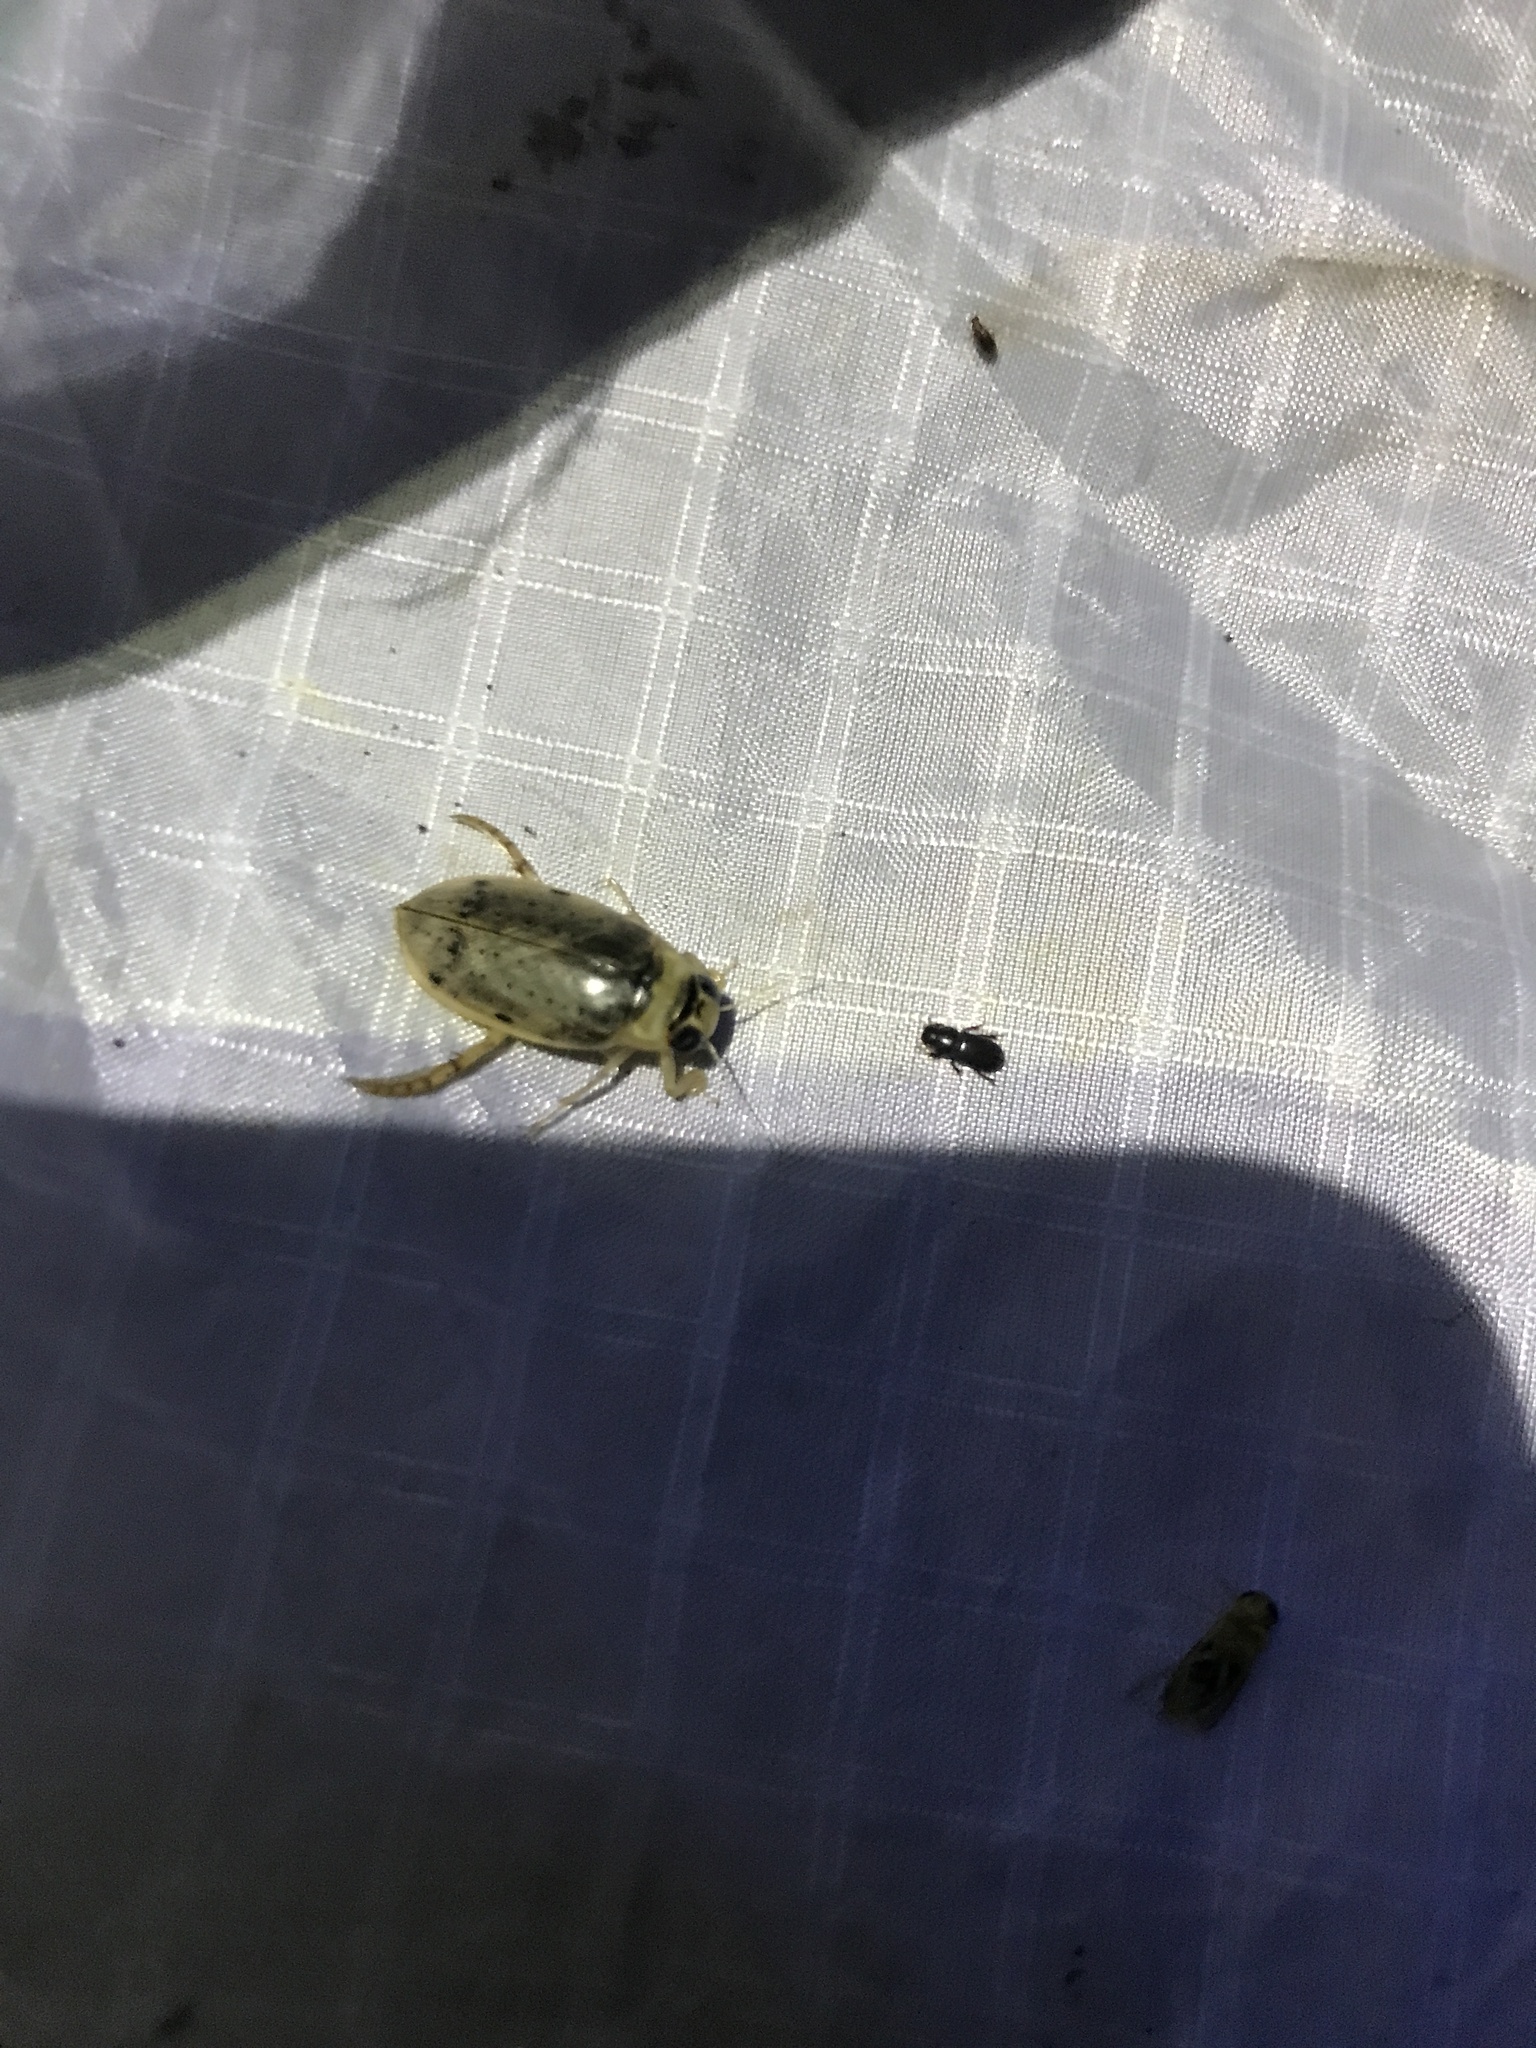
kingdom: Animalia
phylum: Arthropoda
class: Insecta
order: Coleoptera
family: Dytiscidae
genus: Eretes
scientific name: Eretes
